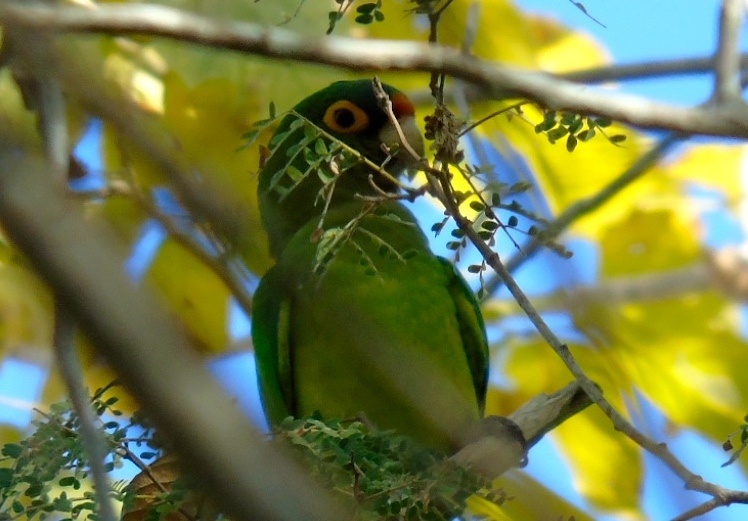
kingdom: Animalia
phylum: Chordata
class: Aves
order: Psittaciformes
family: Psittacidae
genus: Aratinga
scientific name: Aratinga canicularis
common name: Orange-fronted parakeet
